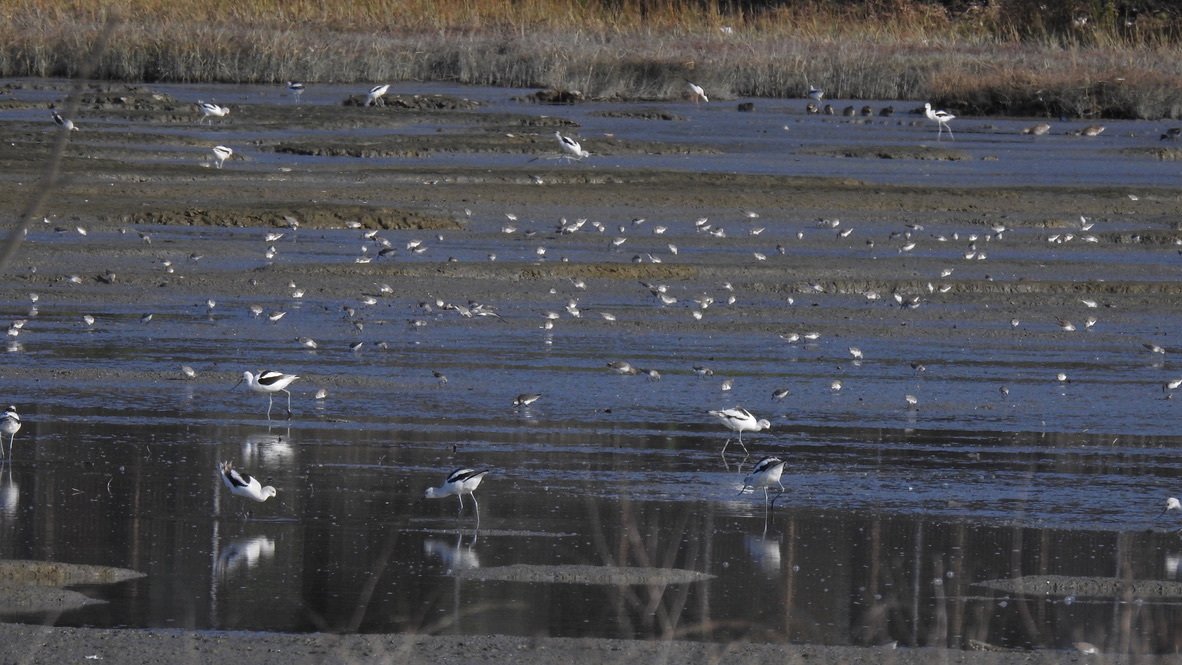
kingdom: Animalia
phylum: Chordata
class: Aves
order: Charadriiformes
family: Recurvirostridae
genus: Recurvirostra
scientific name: Recurvirostra americana
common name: American avocet
